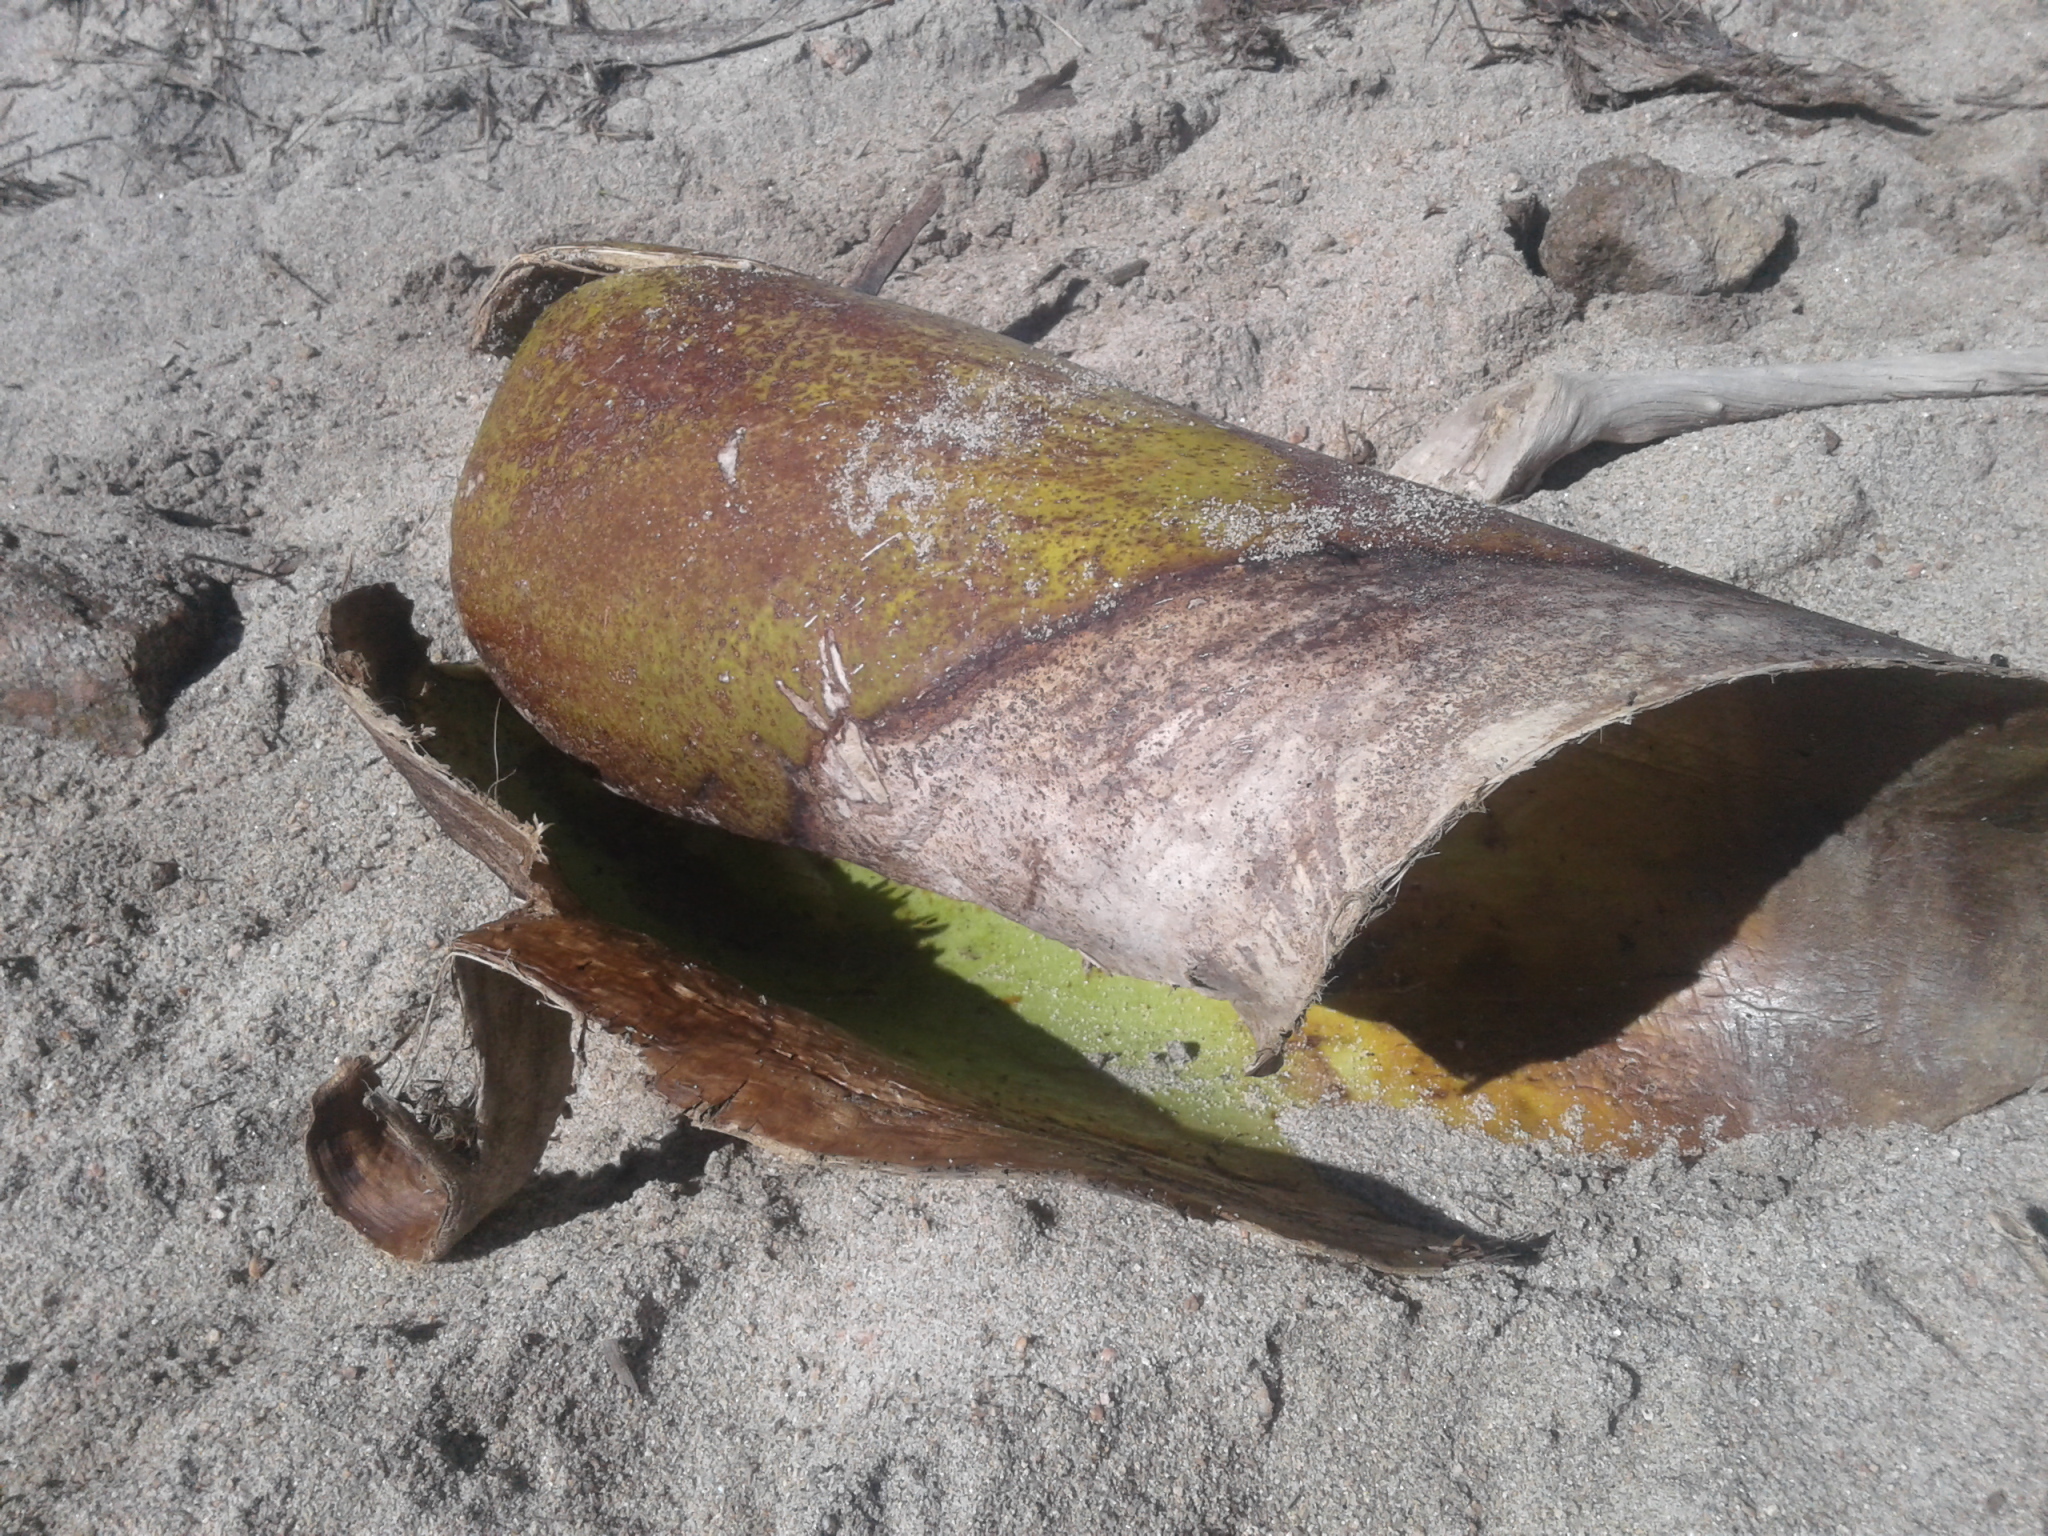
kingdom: Plantae
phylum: Tracheophyta
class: Liliopsida
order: Arecales
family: Arecaceae
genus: Rhopalostylis
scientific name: Rhopalostylis sapida
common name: Feather-duster palm
